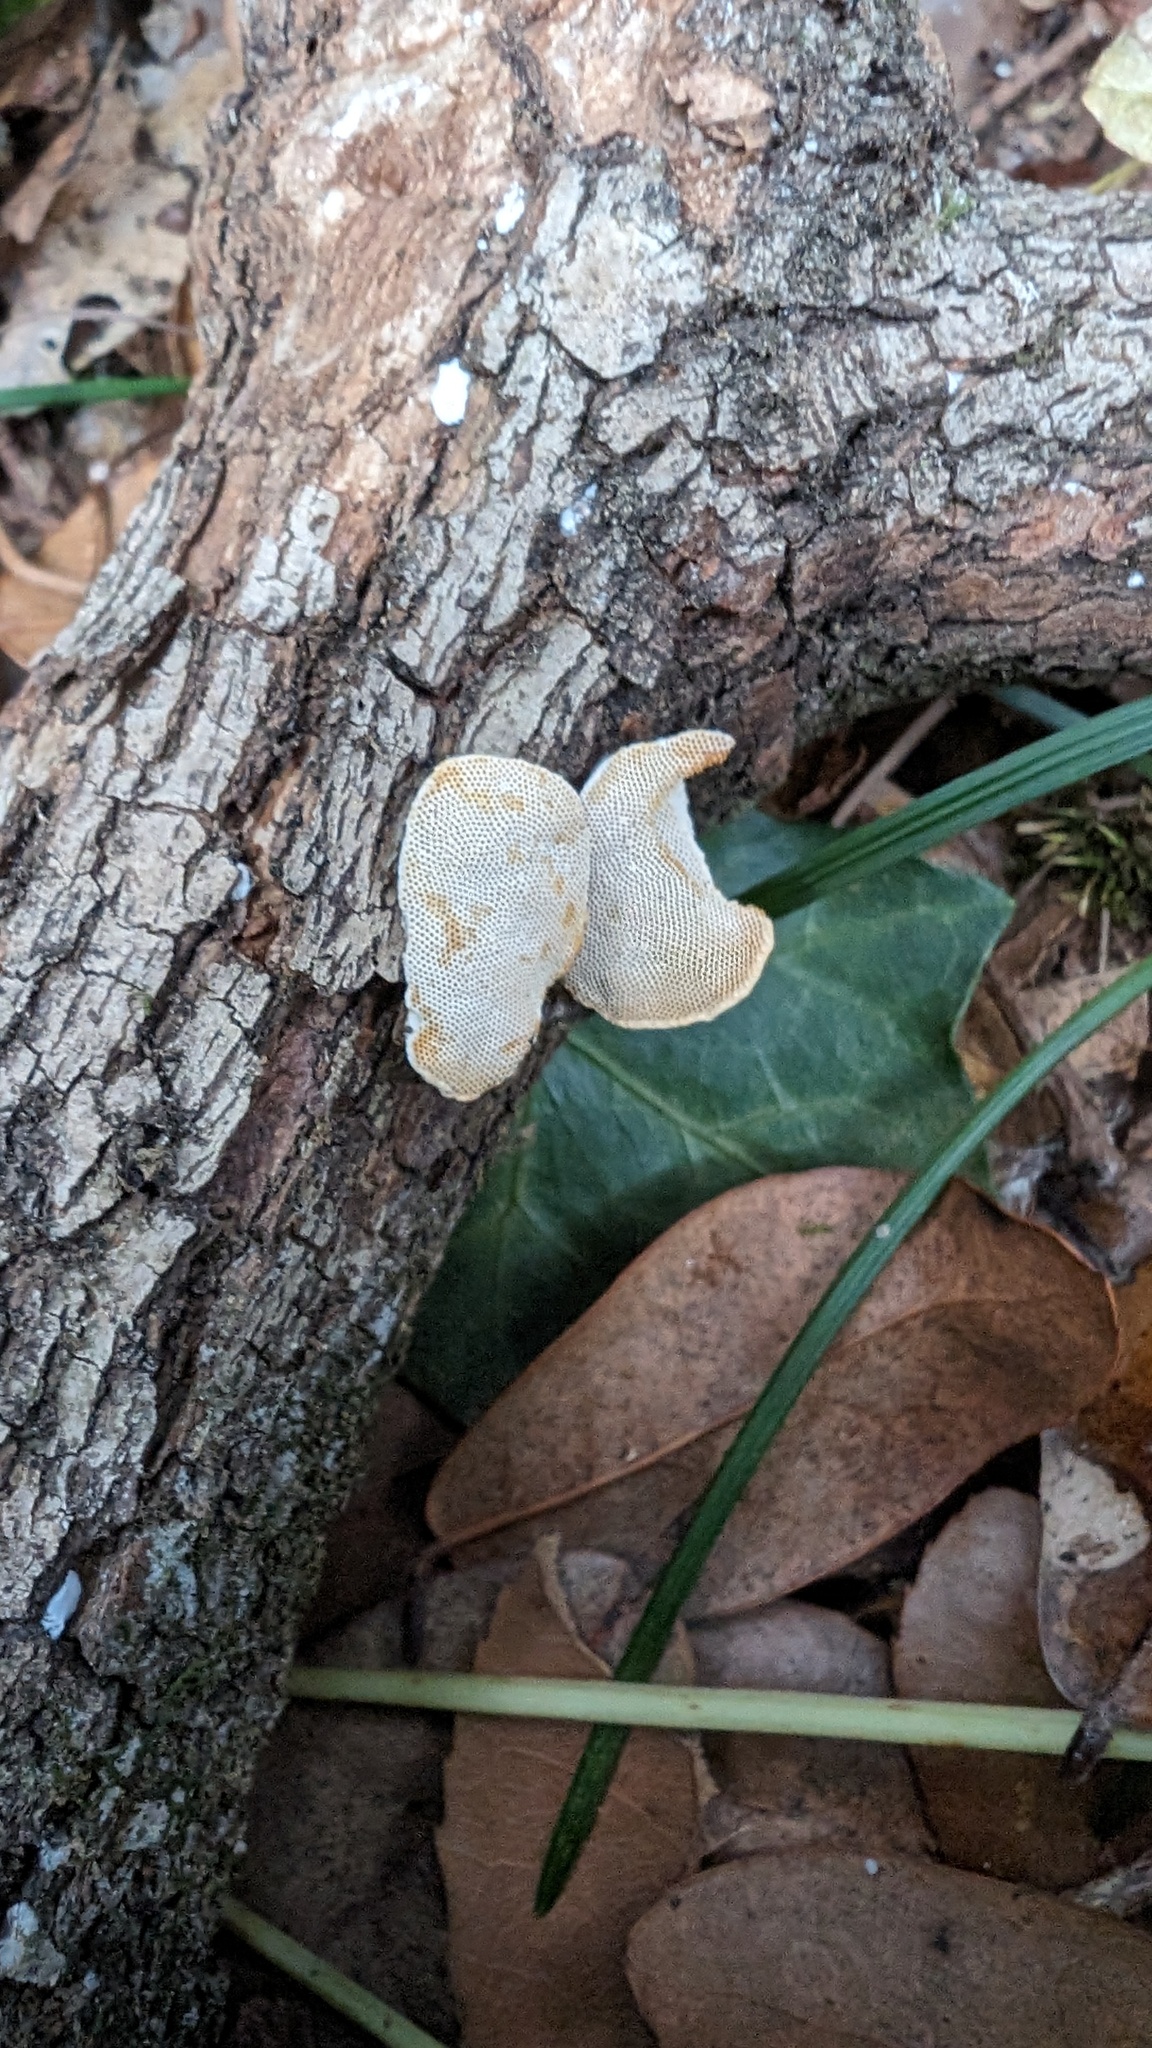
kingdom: Fungi
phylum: Basidiomycota
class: Agaricomycetes
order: Polyporales
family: Polyporaceae
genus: Truncospora
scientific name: Truncospora ochroleuca
